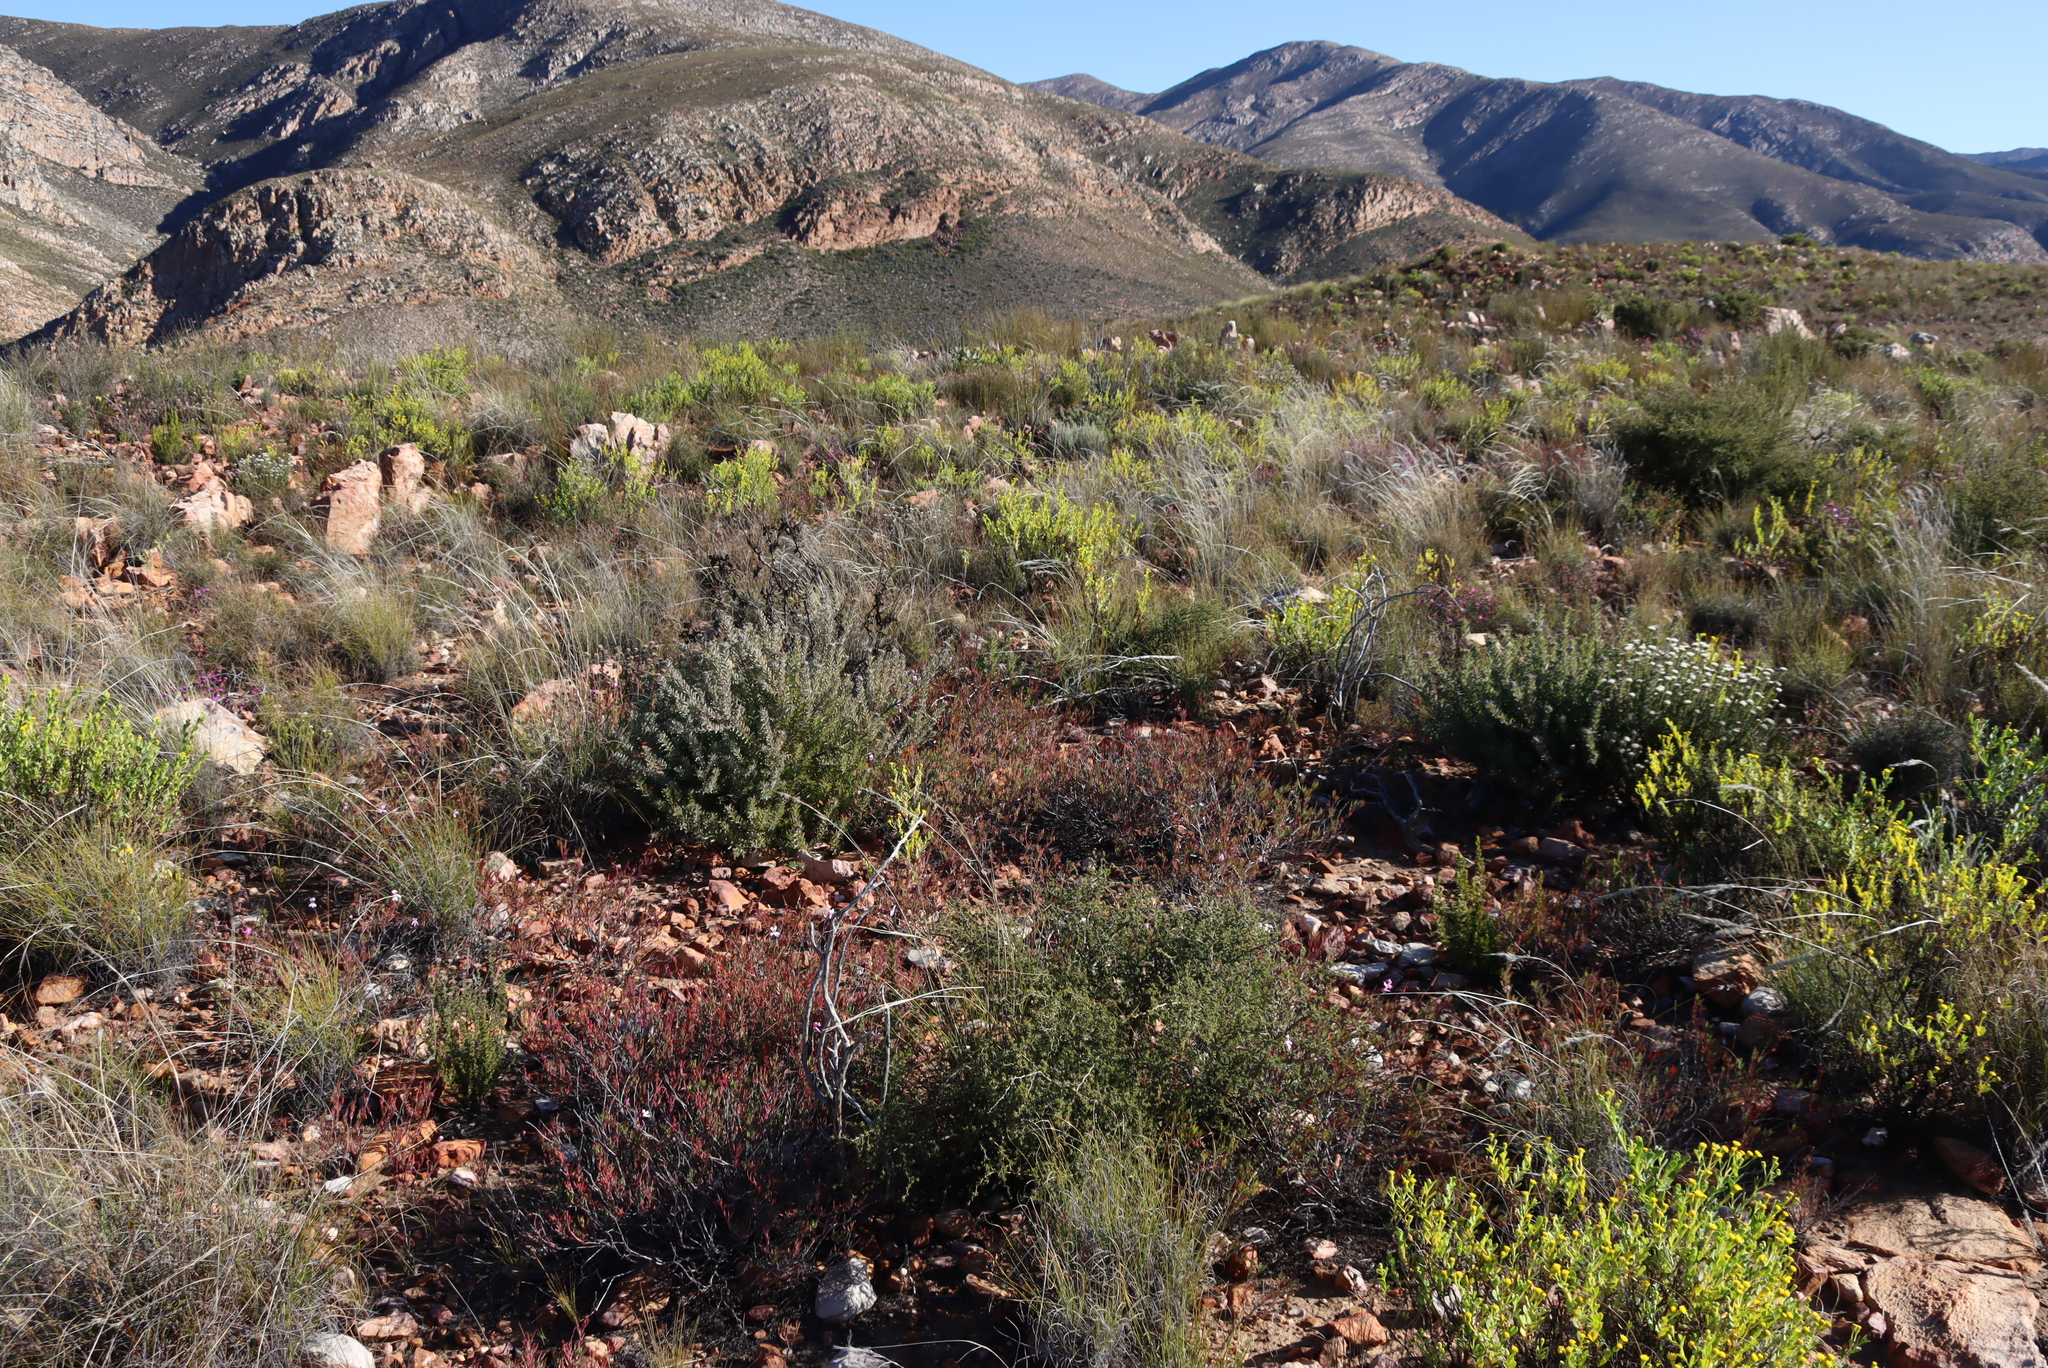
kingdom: Plantae
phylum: Tracheophyta
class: Magnoliopsida
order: Proteales
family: Proteaceae
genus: Leucospermum
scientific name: Leucospermum wittebergense
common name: Swartberg pincushion
